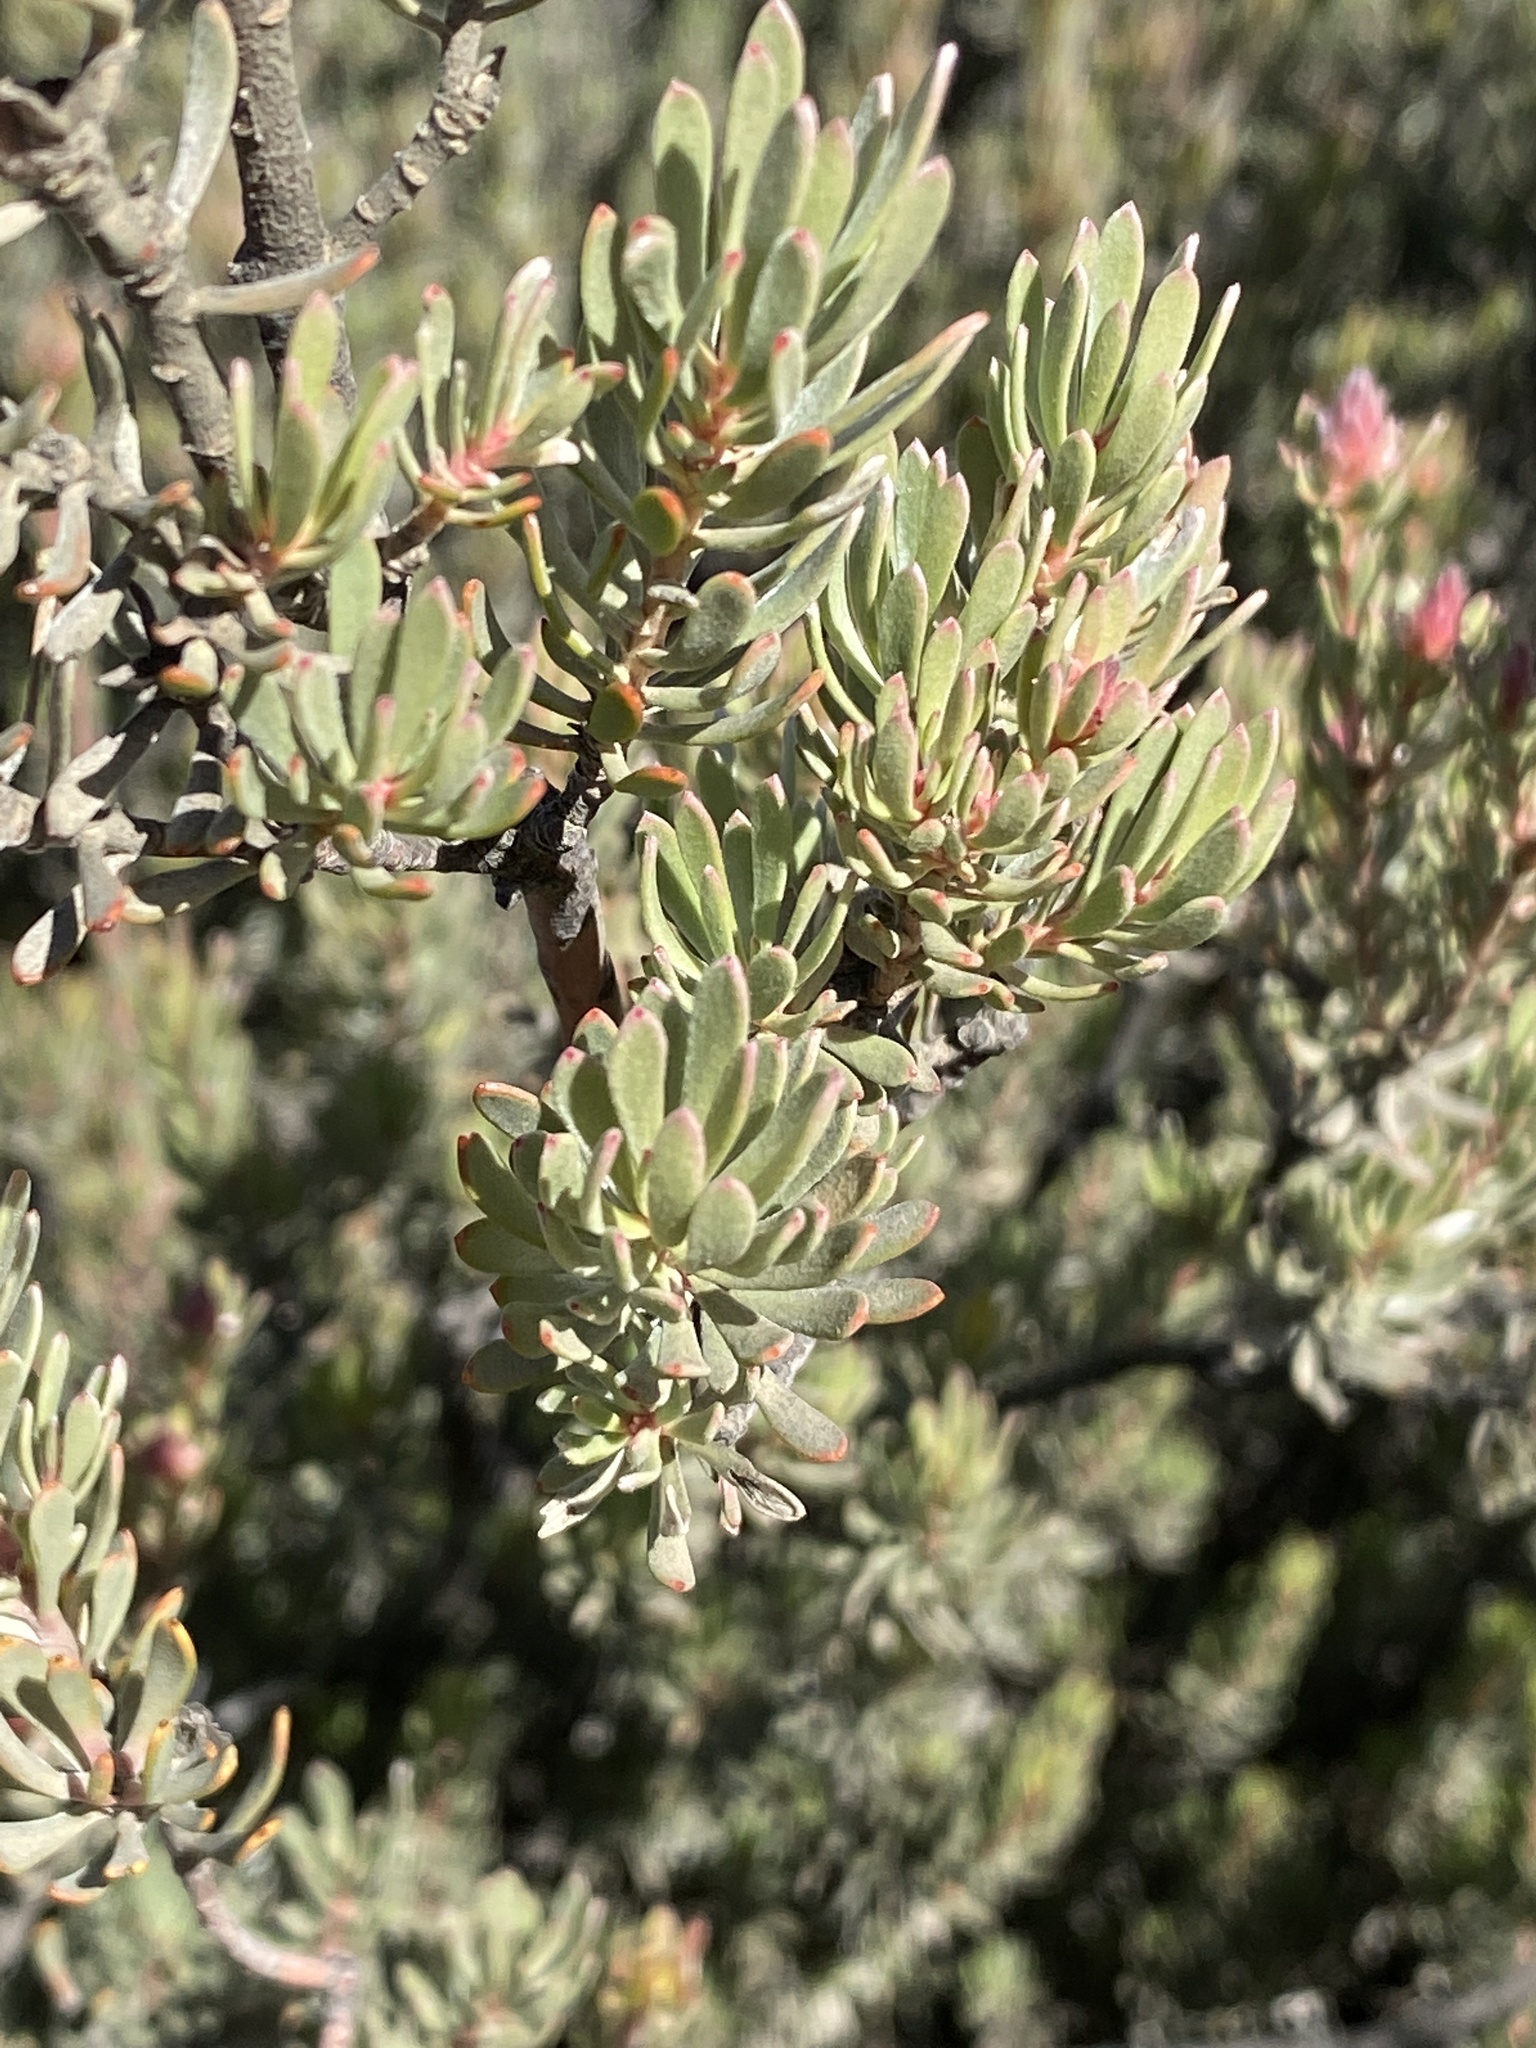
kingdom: Plantae
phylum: Tracheophyta
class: Magnoliopsida
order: Proteales
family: Proteaceae
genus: Leucadendron
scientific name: Leucadendron nitidum
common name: Bokkeveld conebush
